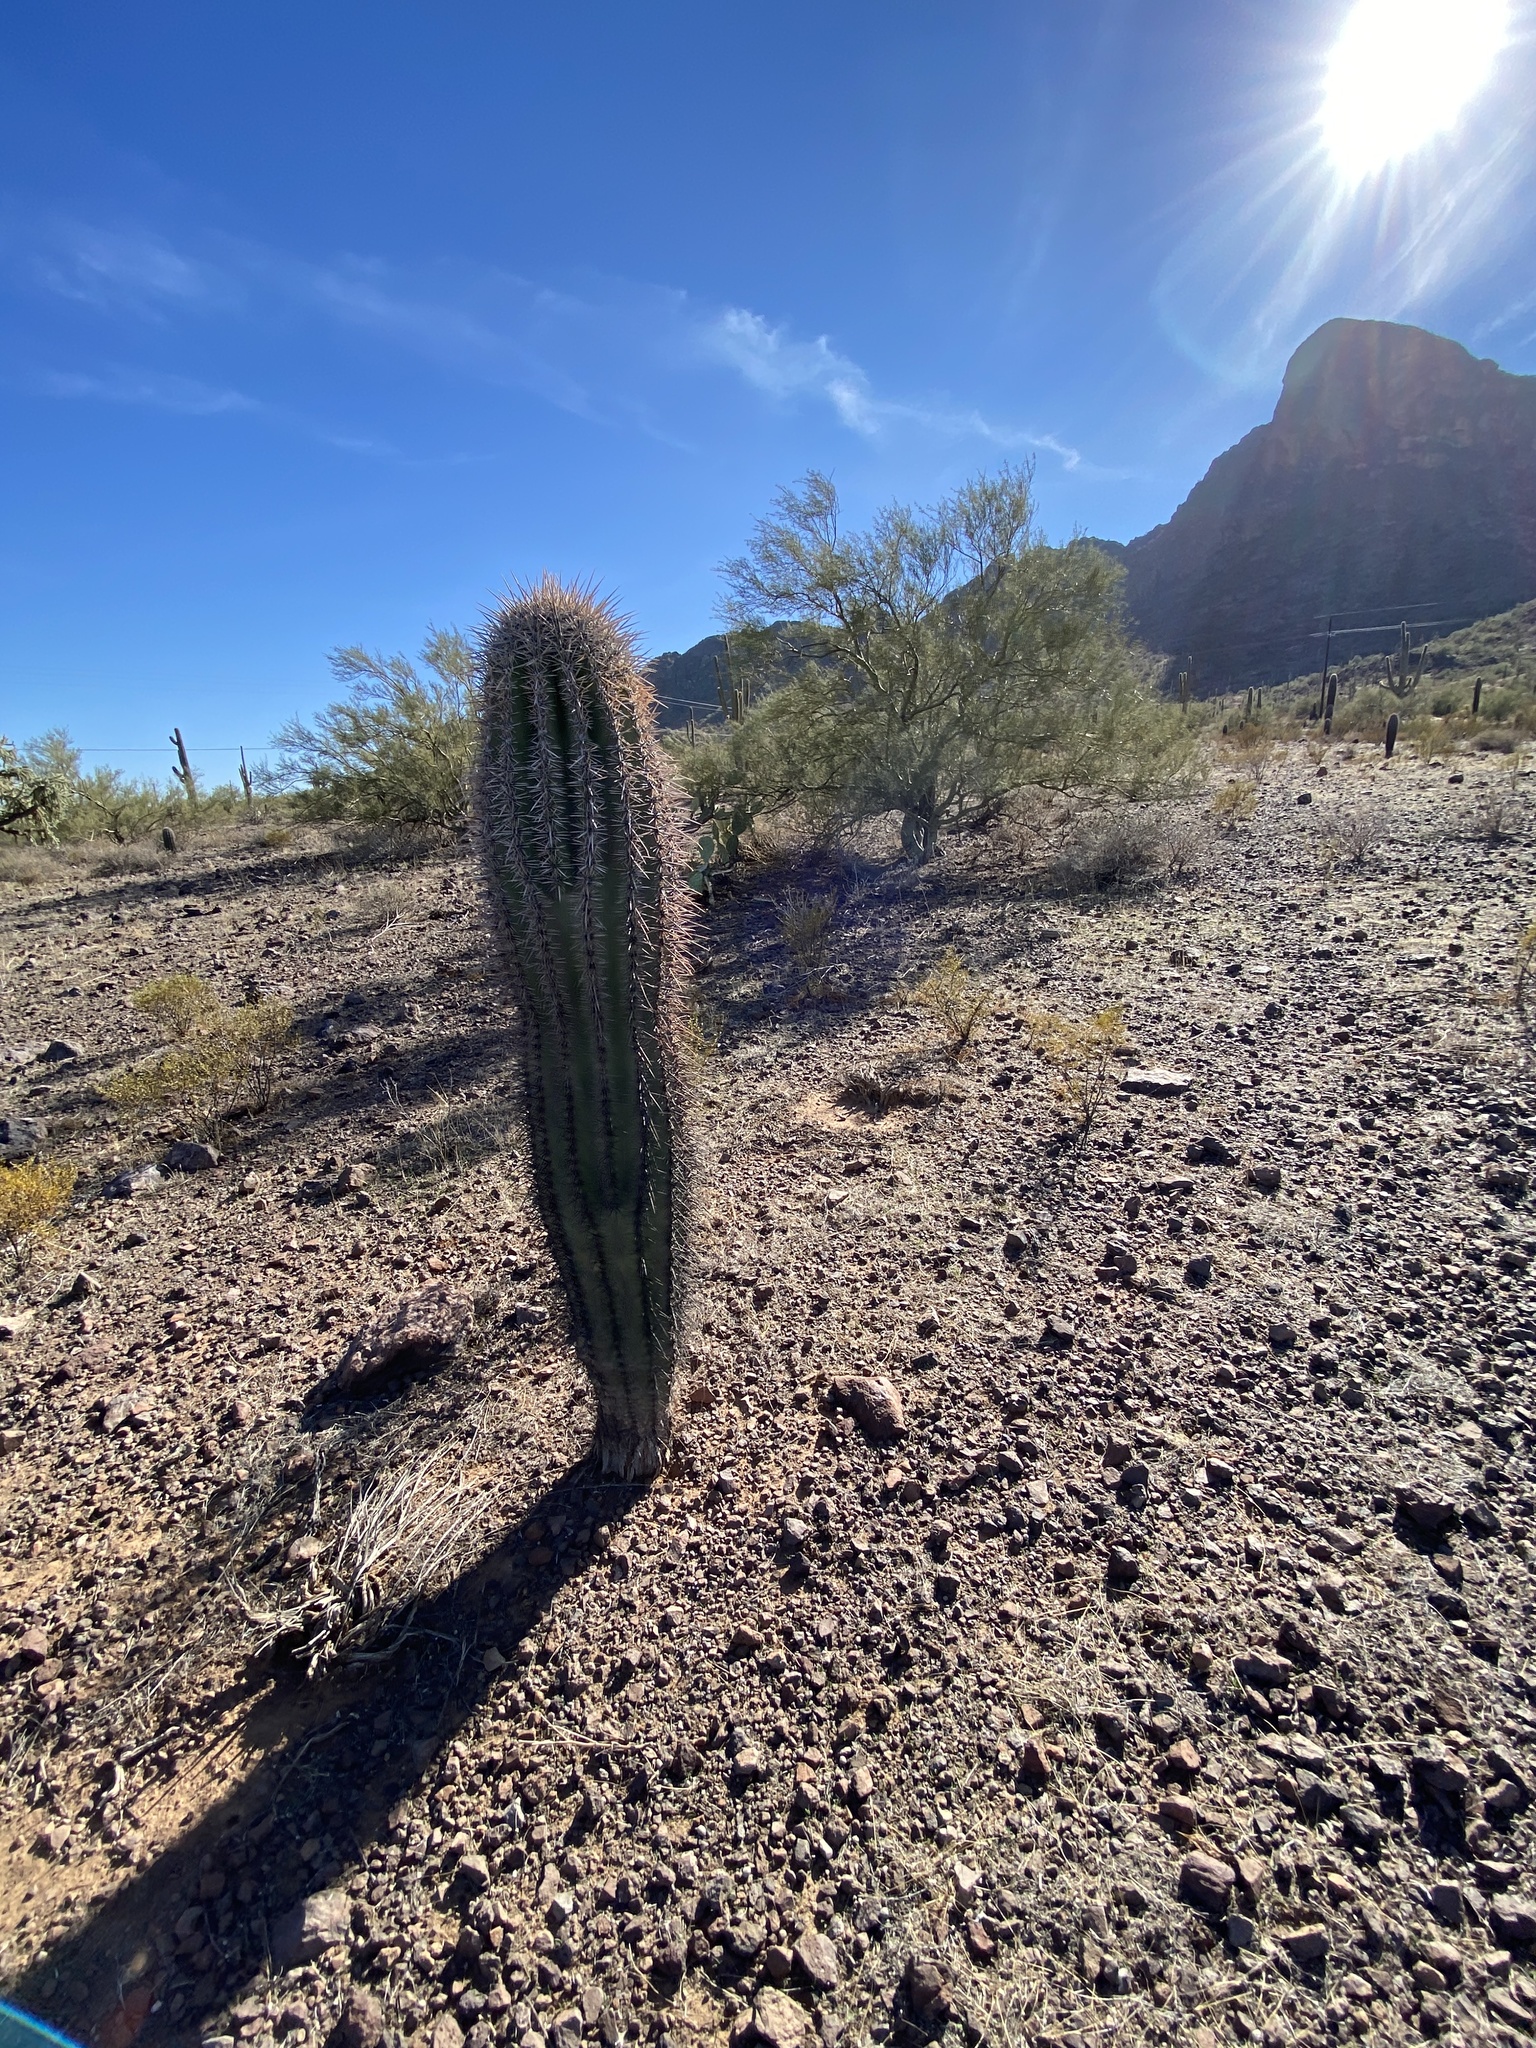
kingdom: Plantae
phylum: Tracheophyta
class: Magnoliopsida
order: Caryophyllales
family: Cactaceae
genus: Carnegiea
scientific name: Carnegiea gigantea
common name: Saguaro
